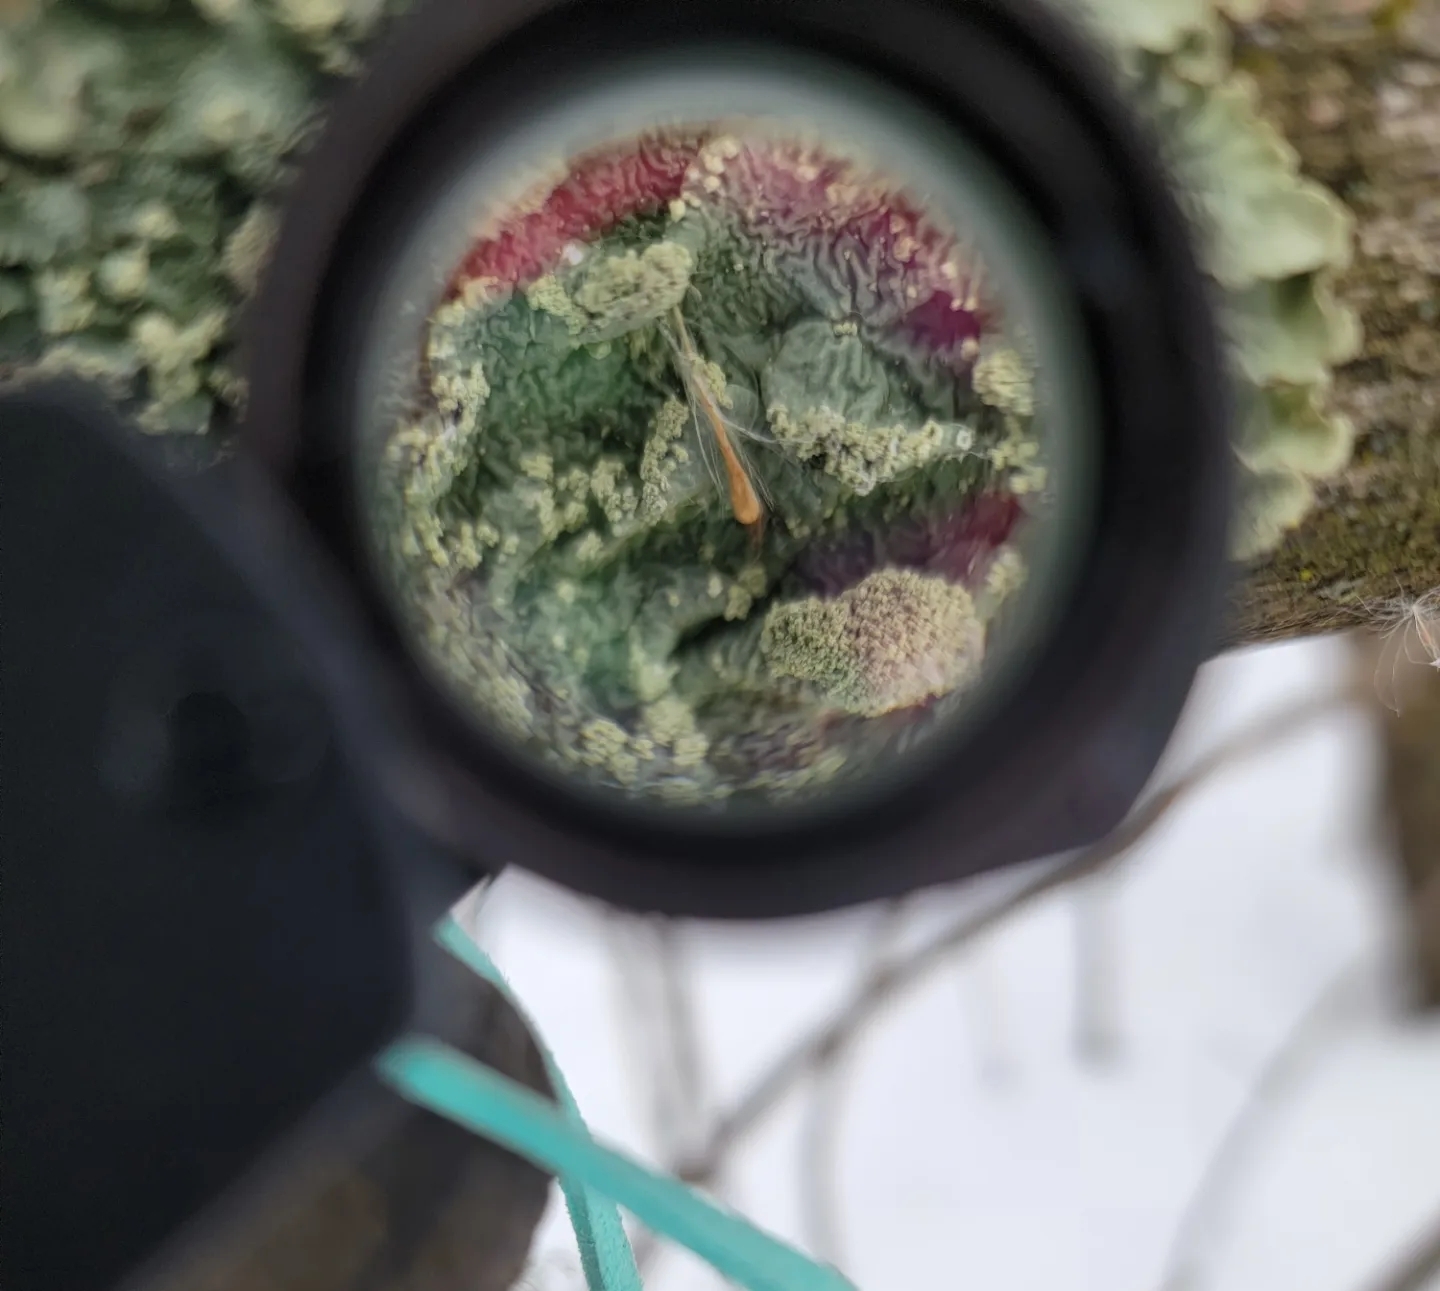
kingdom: Fungi
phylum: Ascomycota
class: Lecanoromycetes
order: Lecanorales
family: Parmeliaceae
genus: Flavoparmelia
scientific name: Flavoparmelia caperata
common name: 40-mile per hour lichen
